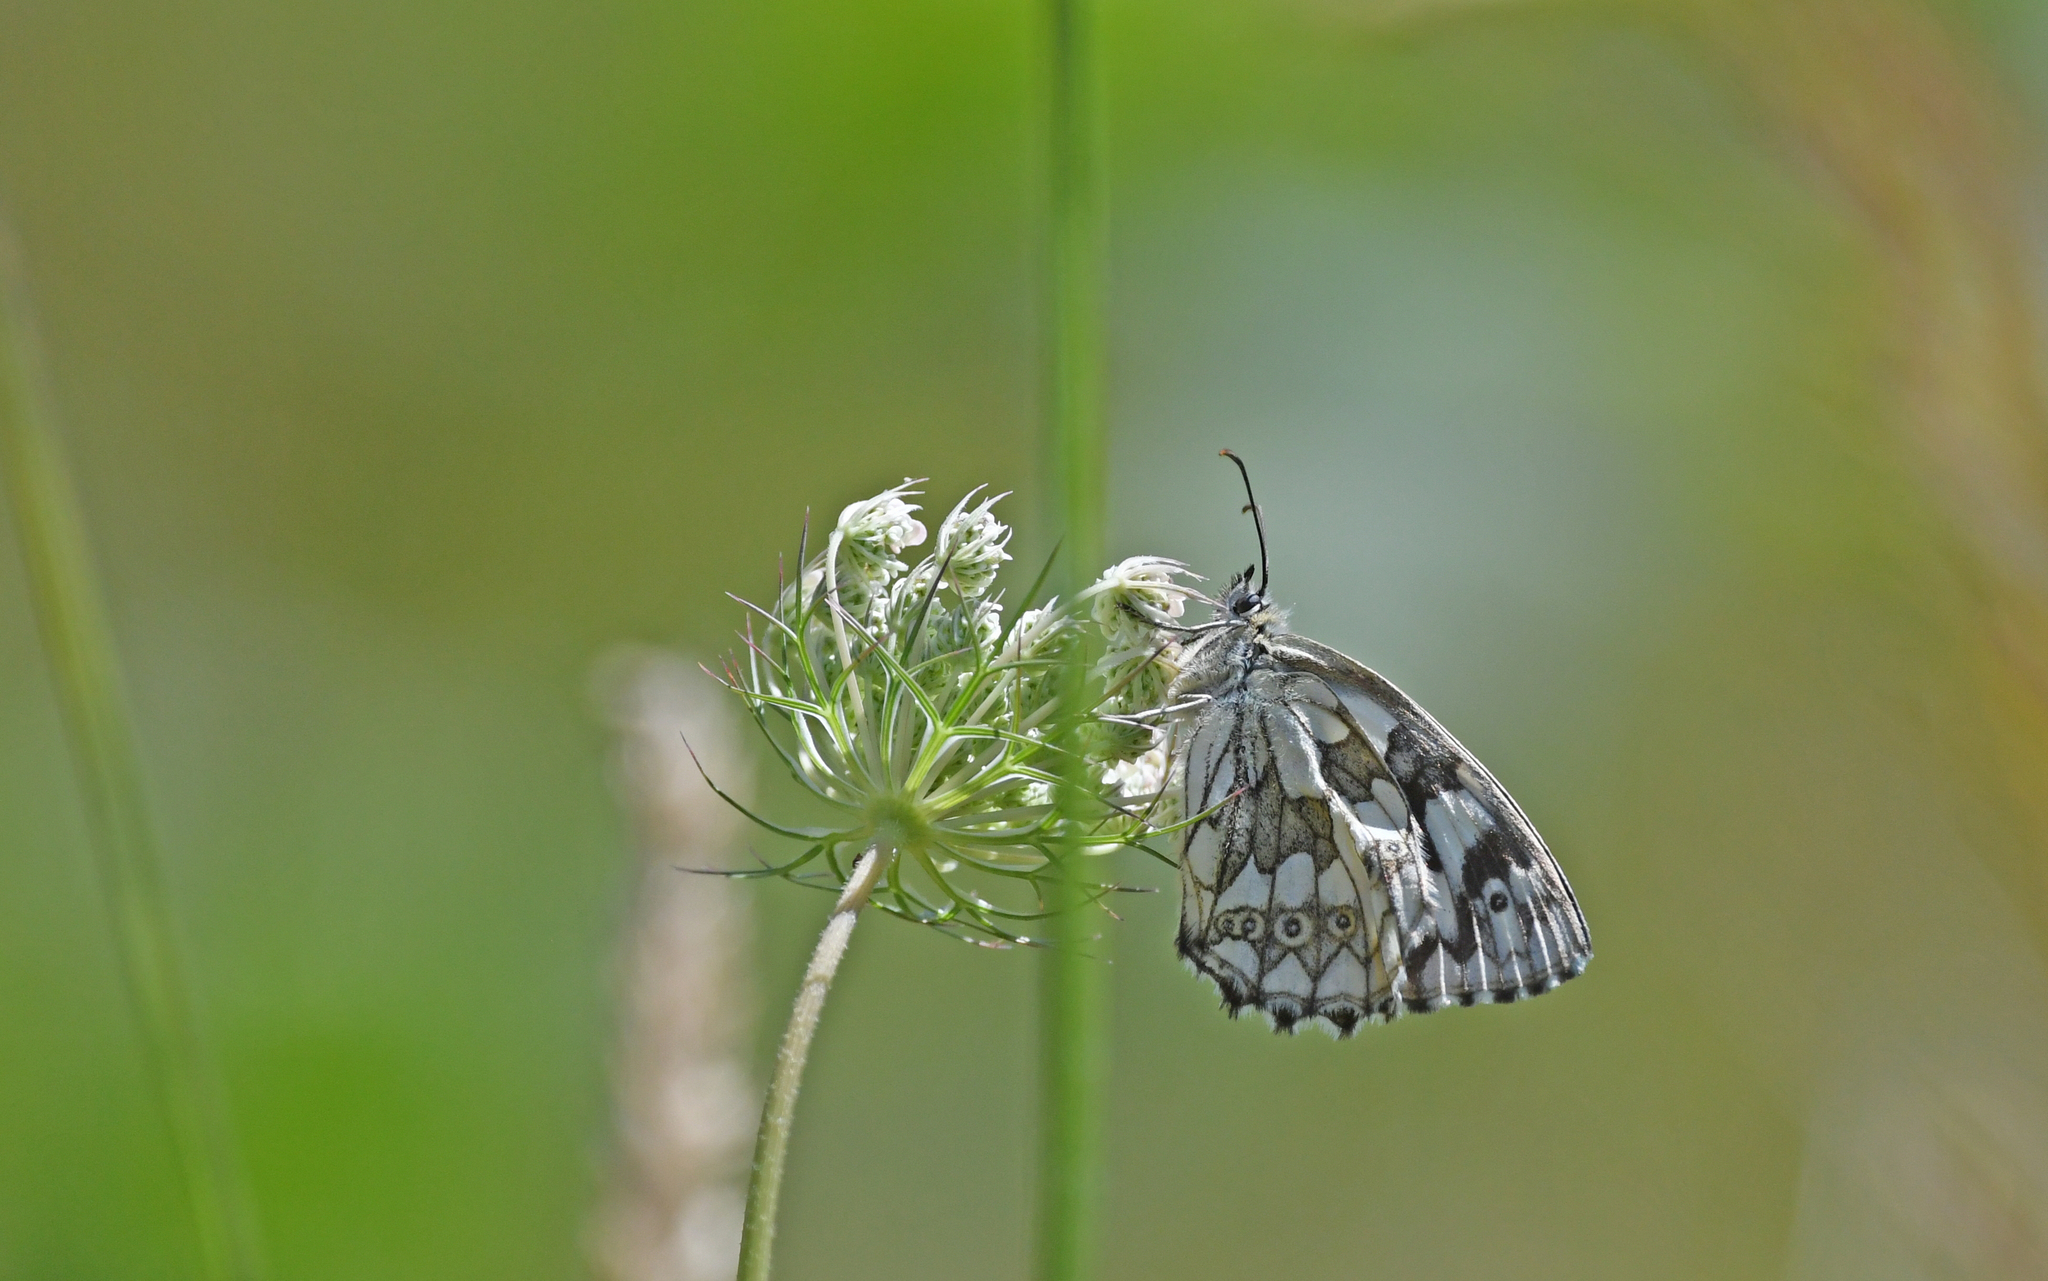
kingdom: Animalia
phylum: Arthropoda
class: Insecta
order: Lepidoptera
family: Nymphalidae
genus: Melanargia
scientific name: Melanargia galathea
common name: Marbled white
